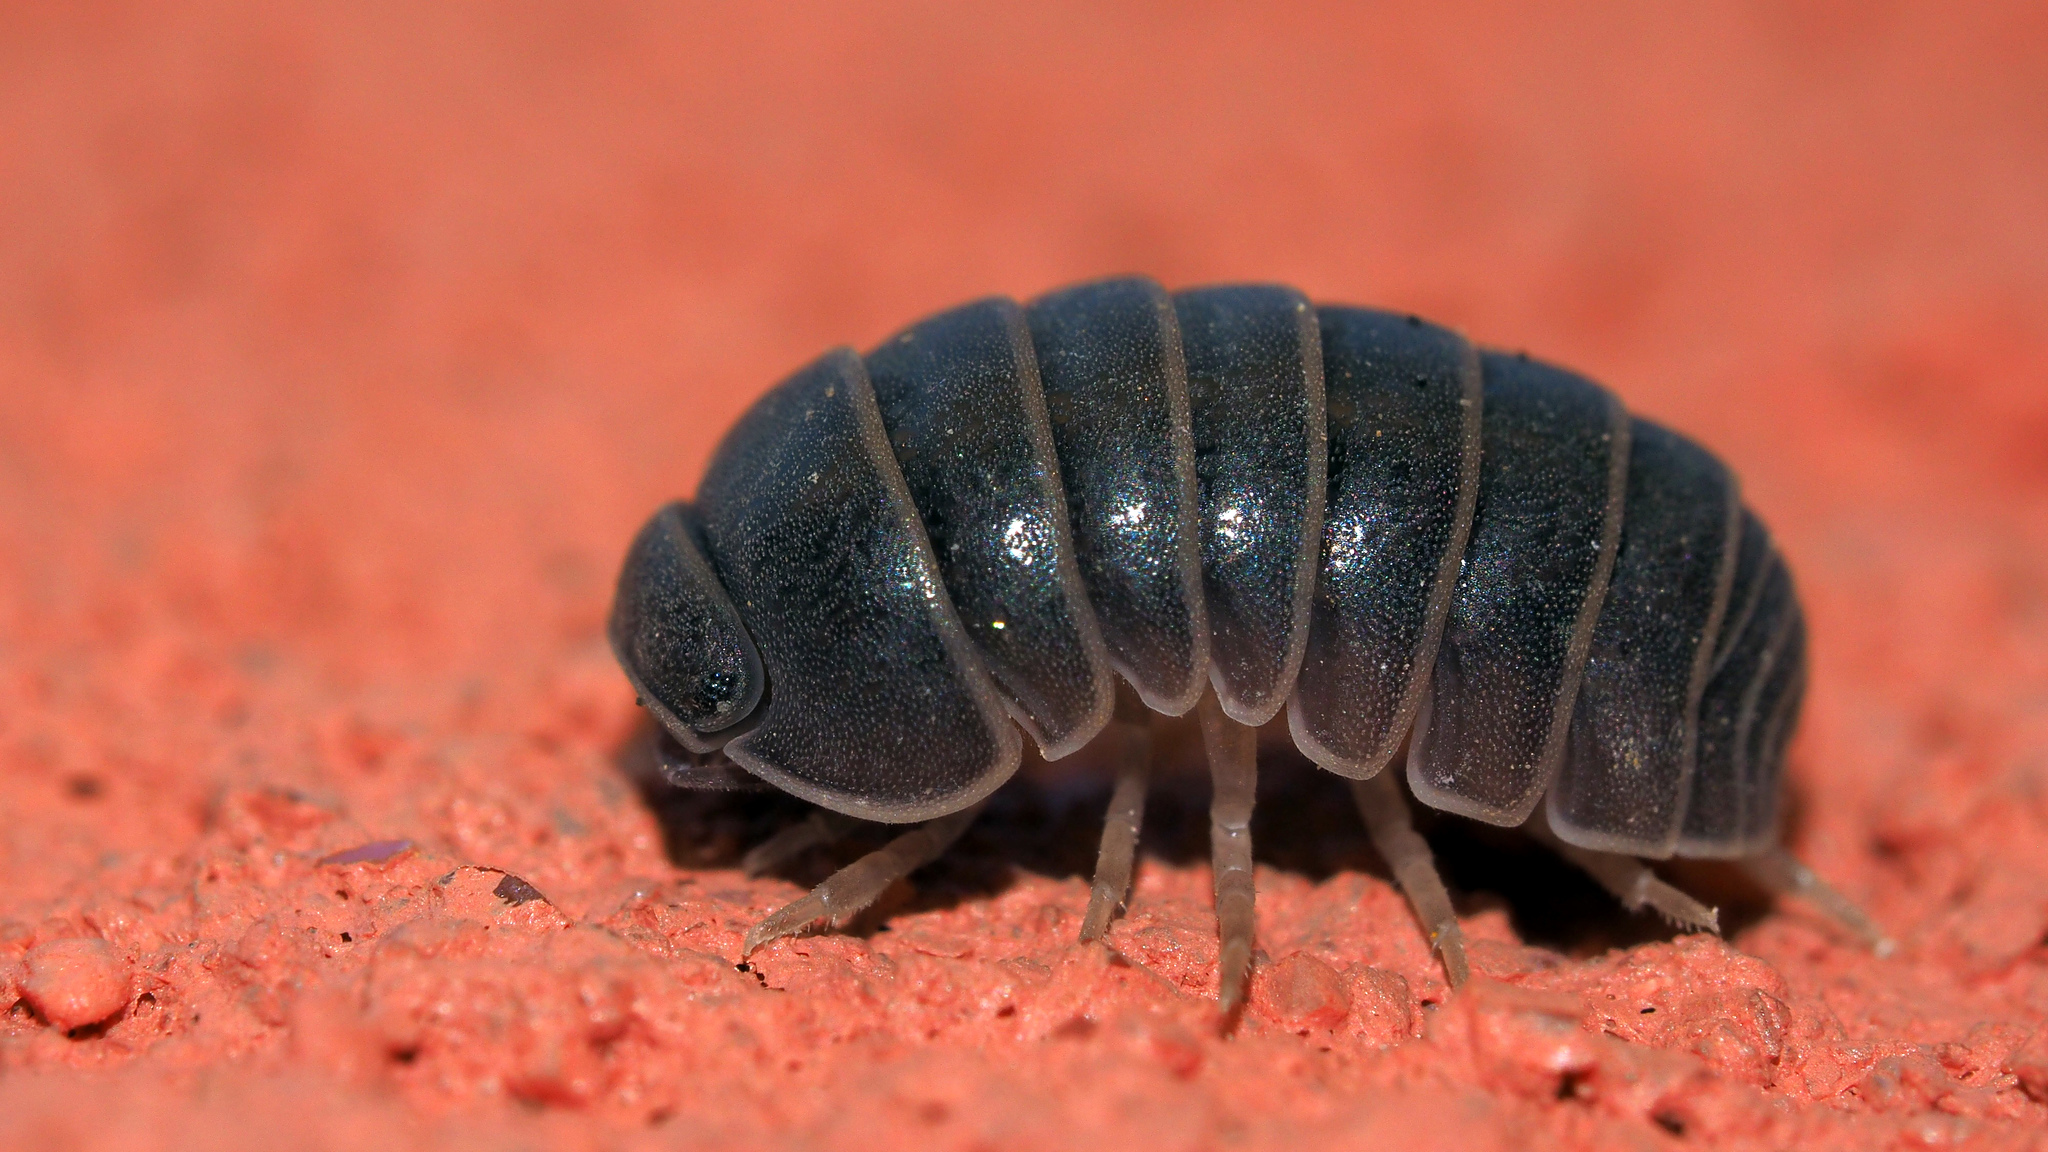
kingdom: Animalia
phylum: Arthropoda
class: Malacostraca
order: Isopoda
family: Armadillidae
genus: Armadillo
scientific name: Armadillo officinalis
